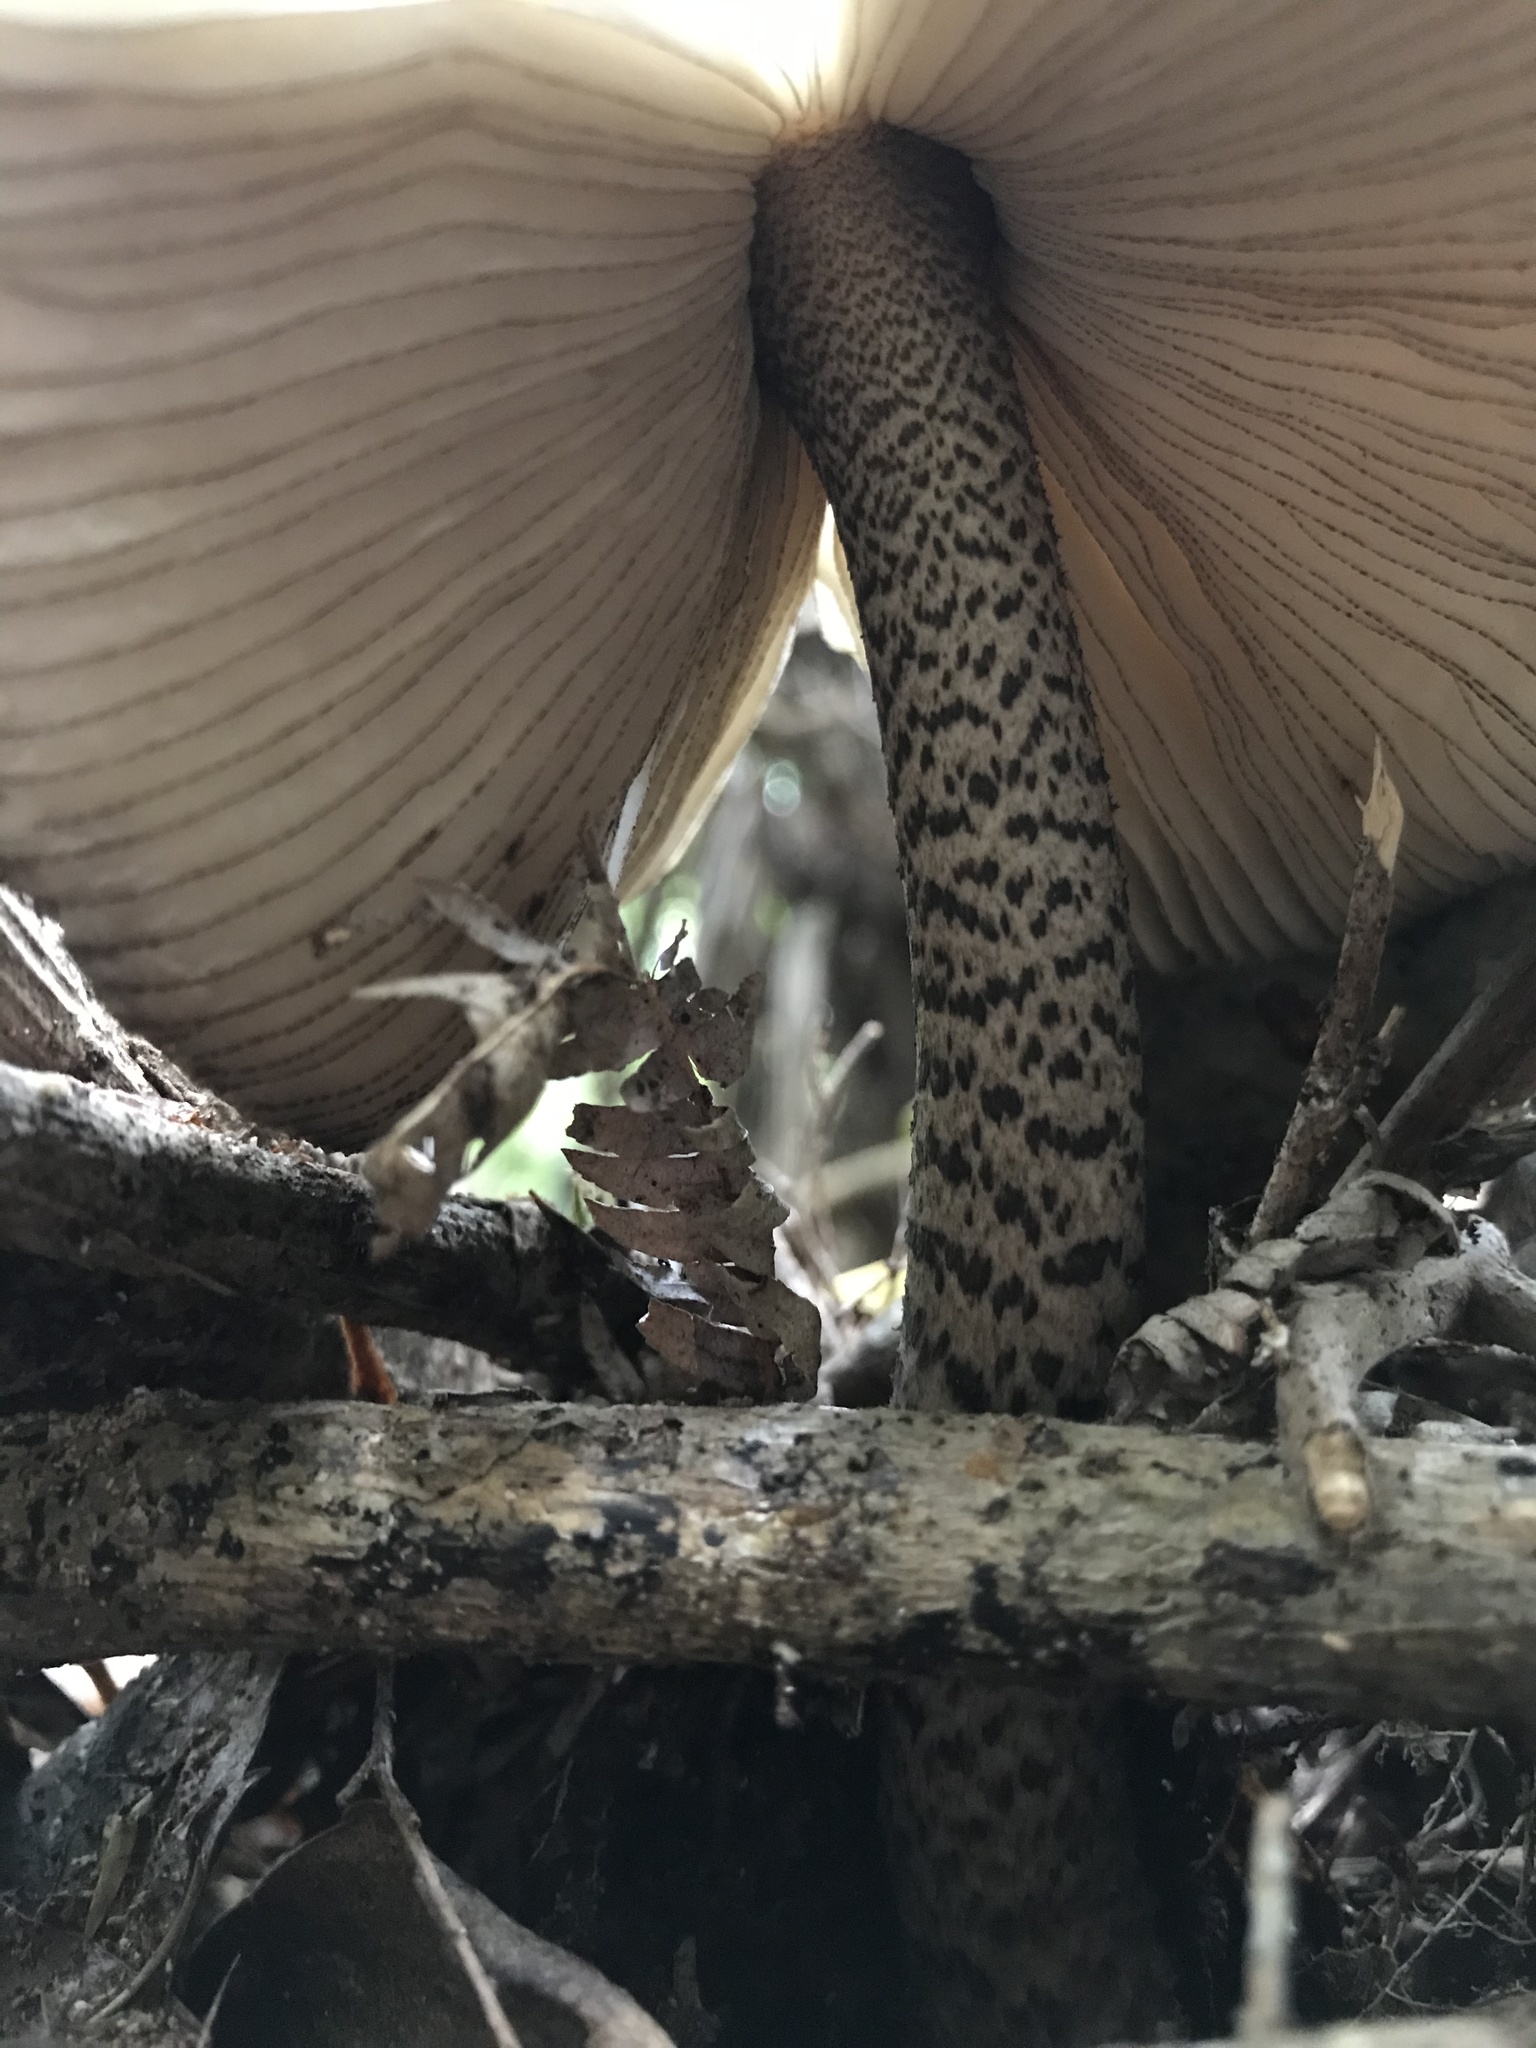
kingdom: Fungi
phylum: Basidiomycota
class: Agaricomycetes
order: Agaricales
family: Amanitaceae
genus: Amanita
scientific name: Amanita pekeoides
